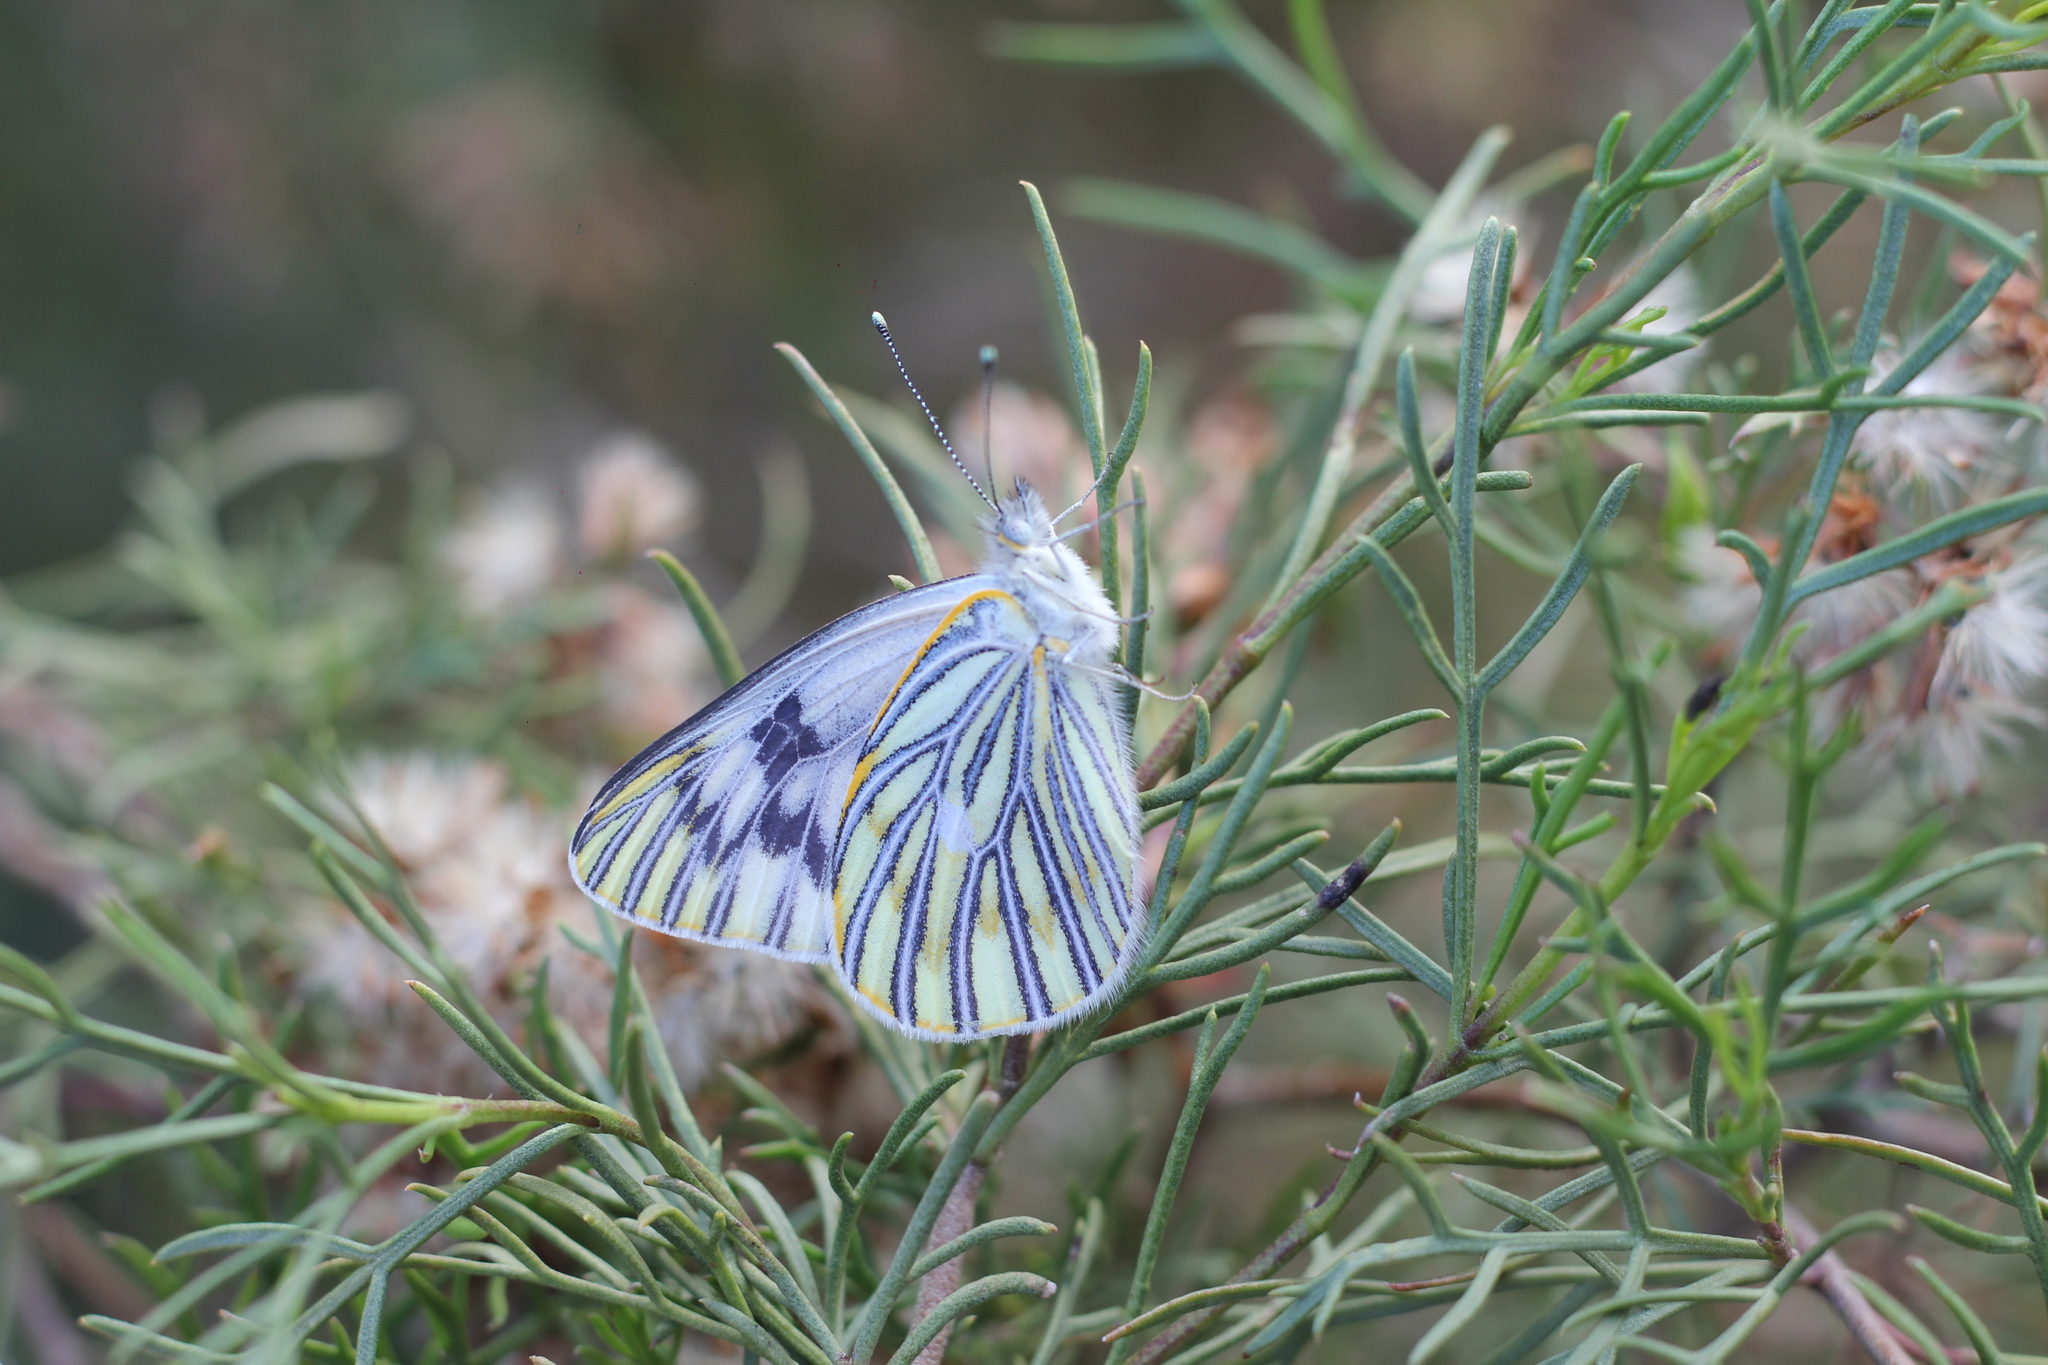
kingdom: Animalia
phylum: Arthropoda
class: Insecta
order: Lepidoptera
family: Pieridae
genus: Tatochila
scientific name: Tatochila mercedis
